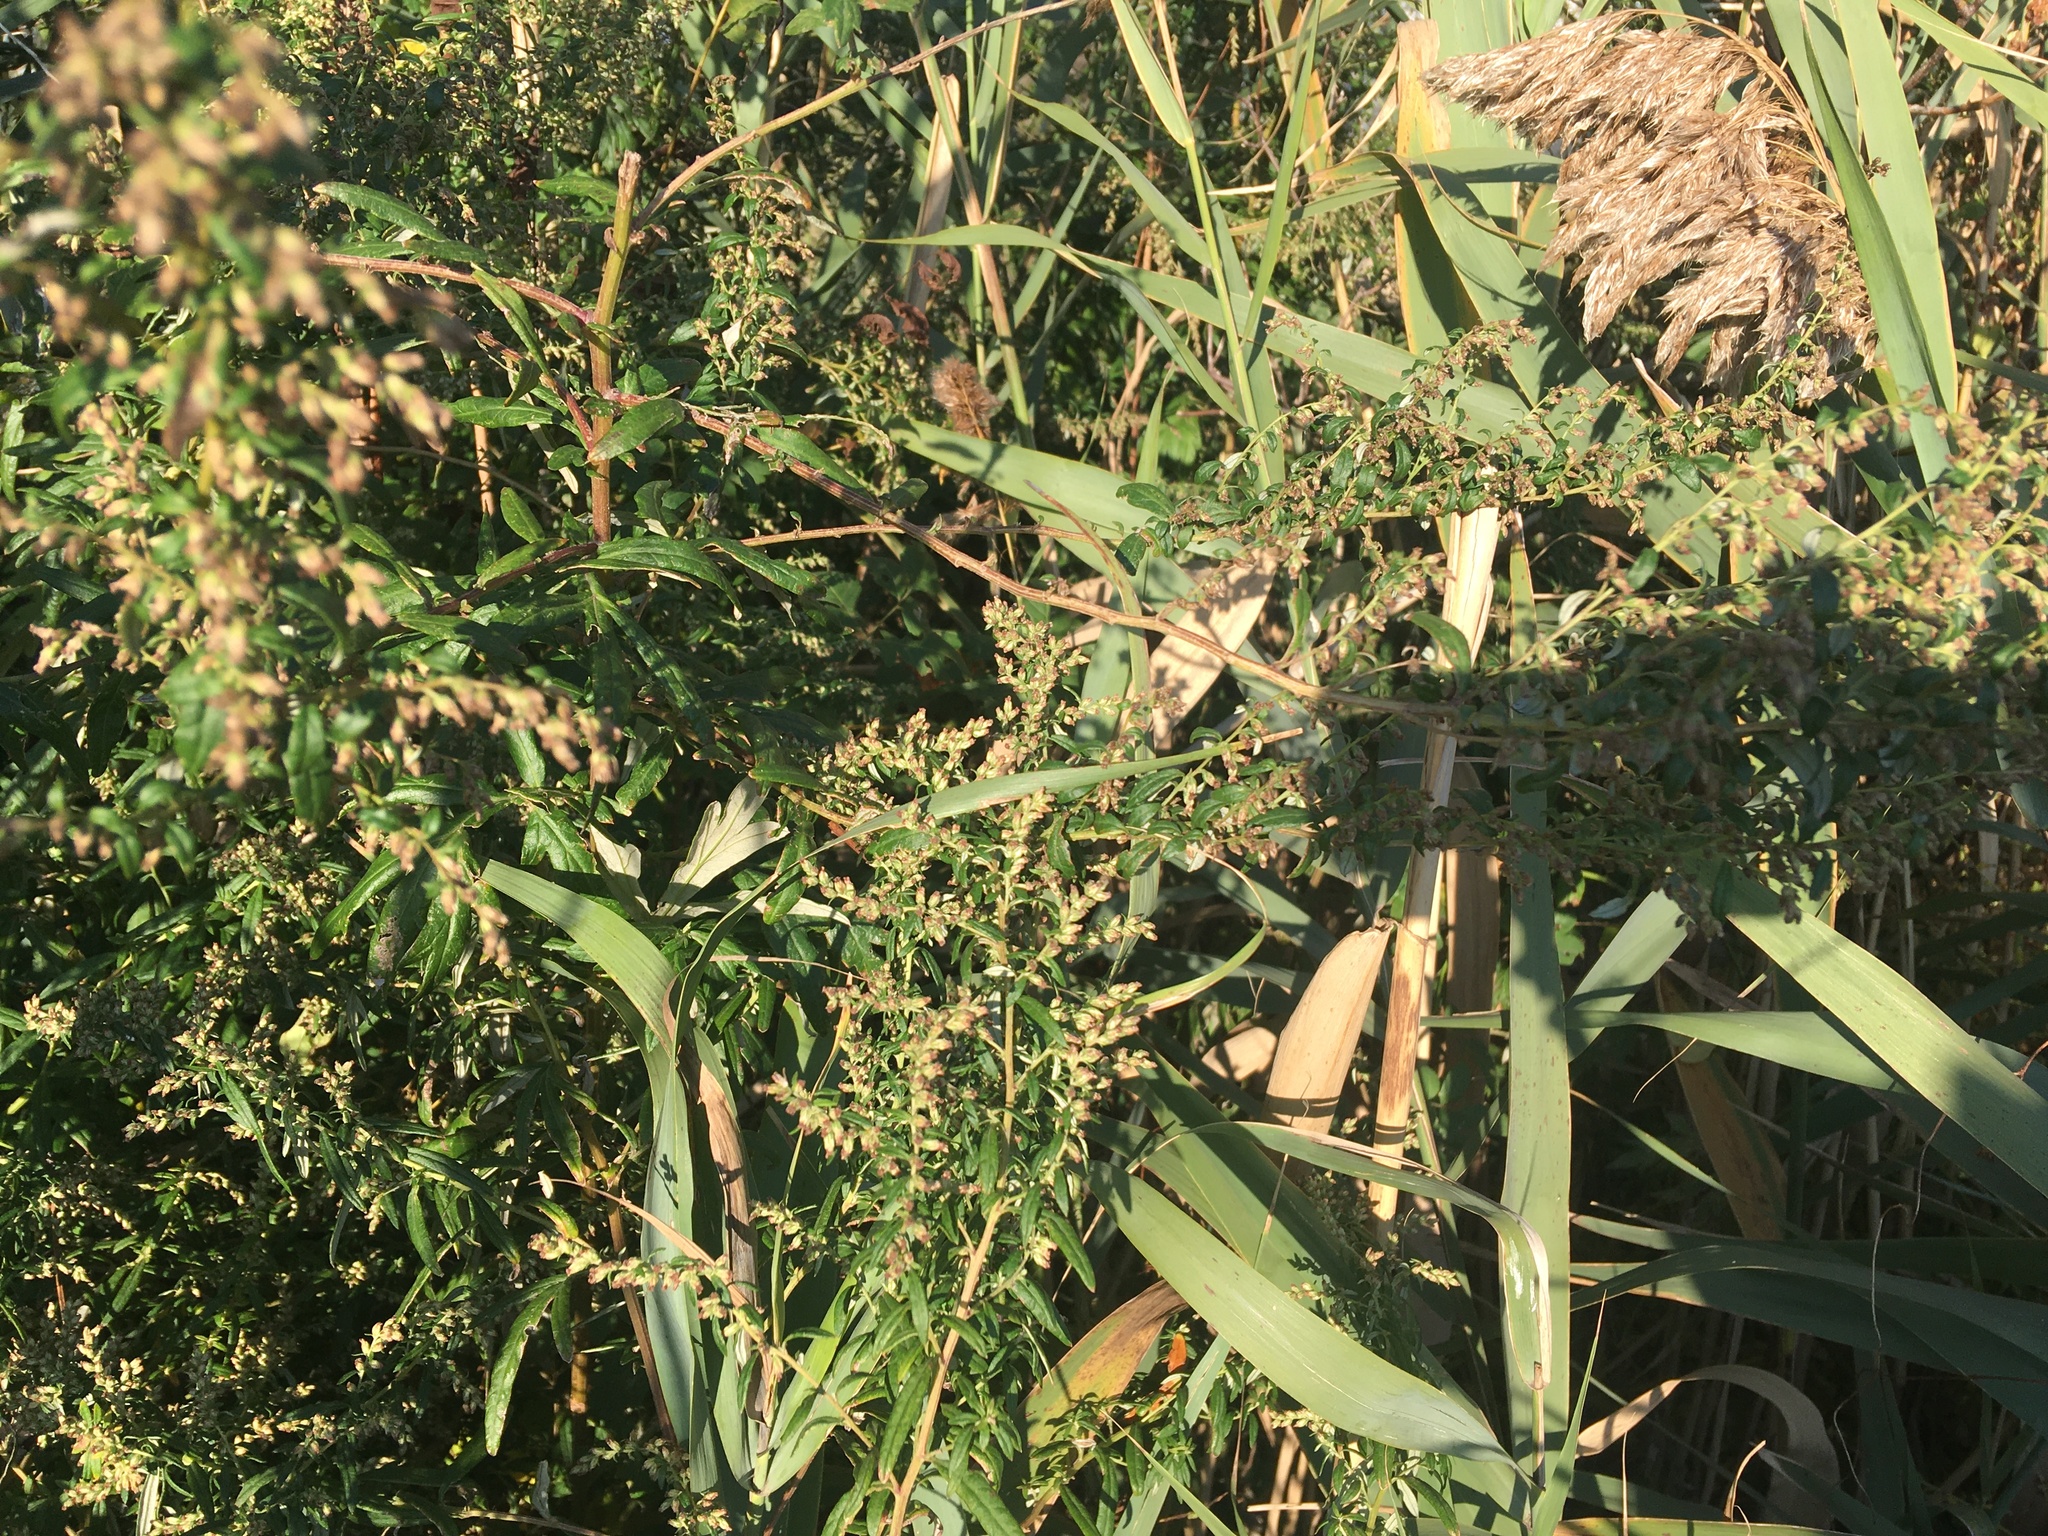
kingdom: Plantae
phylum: Tracheophyta
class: Magnoliopsida
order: Asterales
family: Asteraceae
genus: Artemisia
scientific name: Artemisia vulgaris
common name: Mugwort
